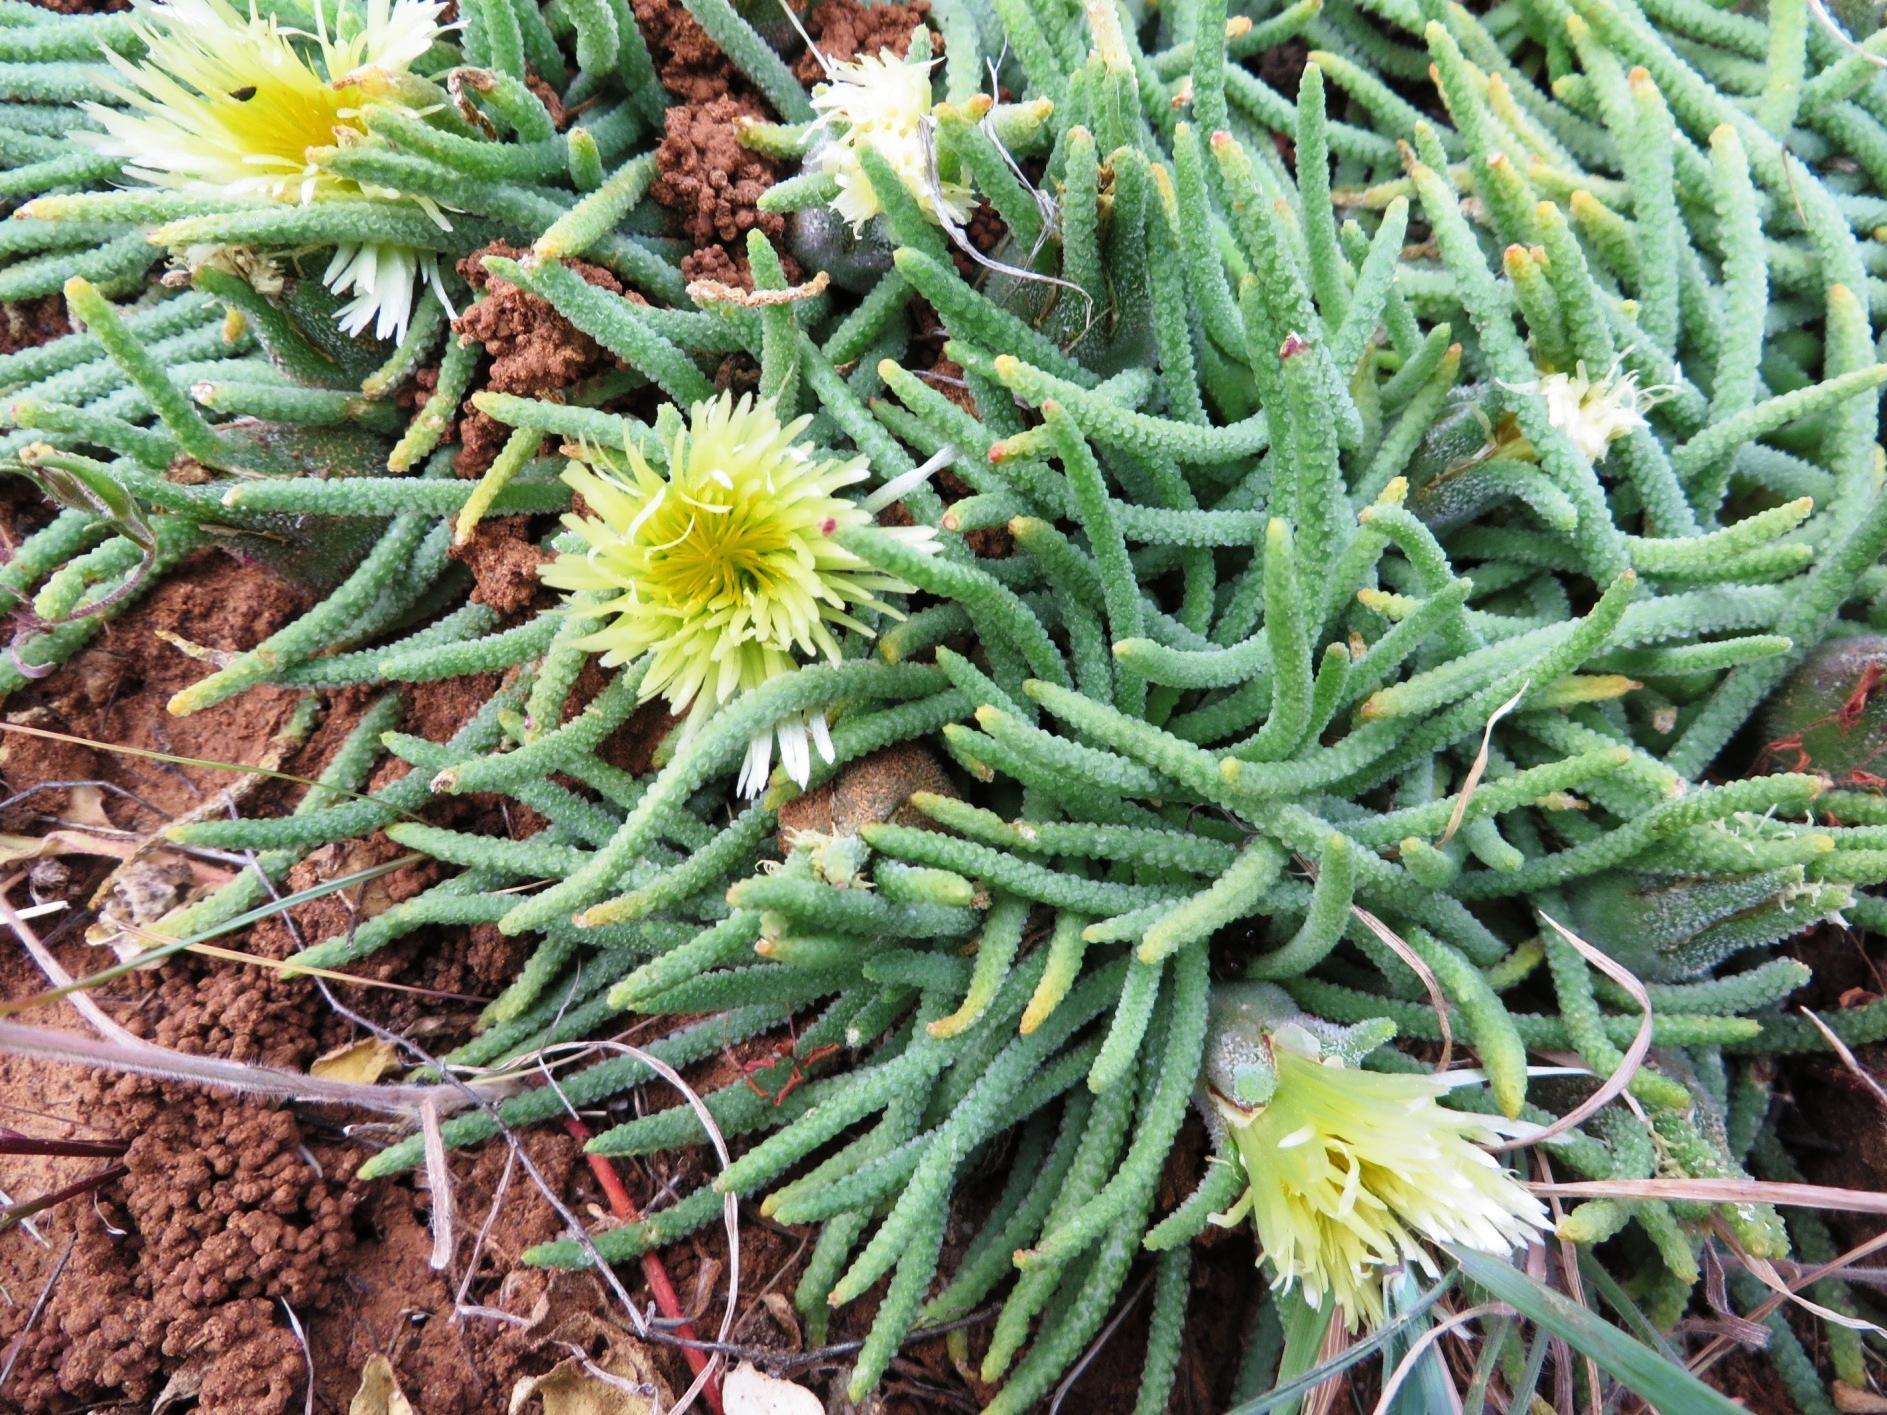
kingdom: Plantae
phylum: Tracheophyta
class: Magnoliopsida
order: Caryophyllales
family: Aizoaceae
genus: Mesembryanthemum
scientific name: Mesembryanthemum resurgens
